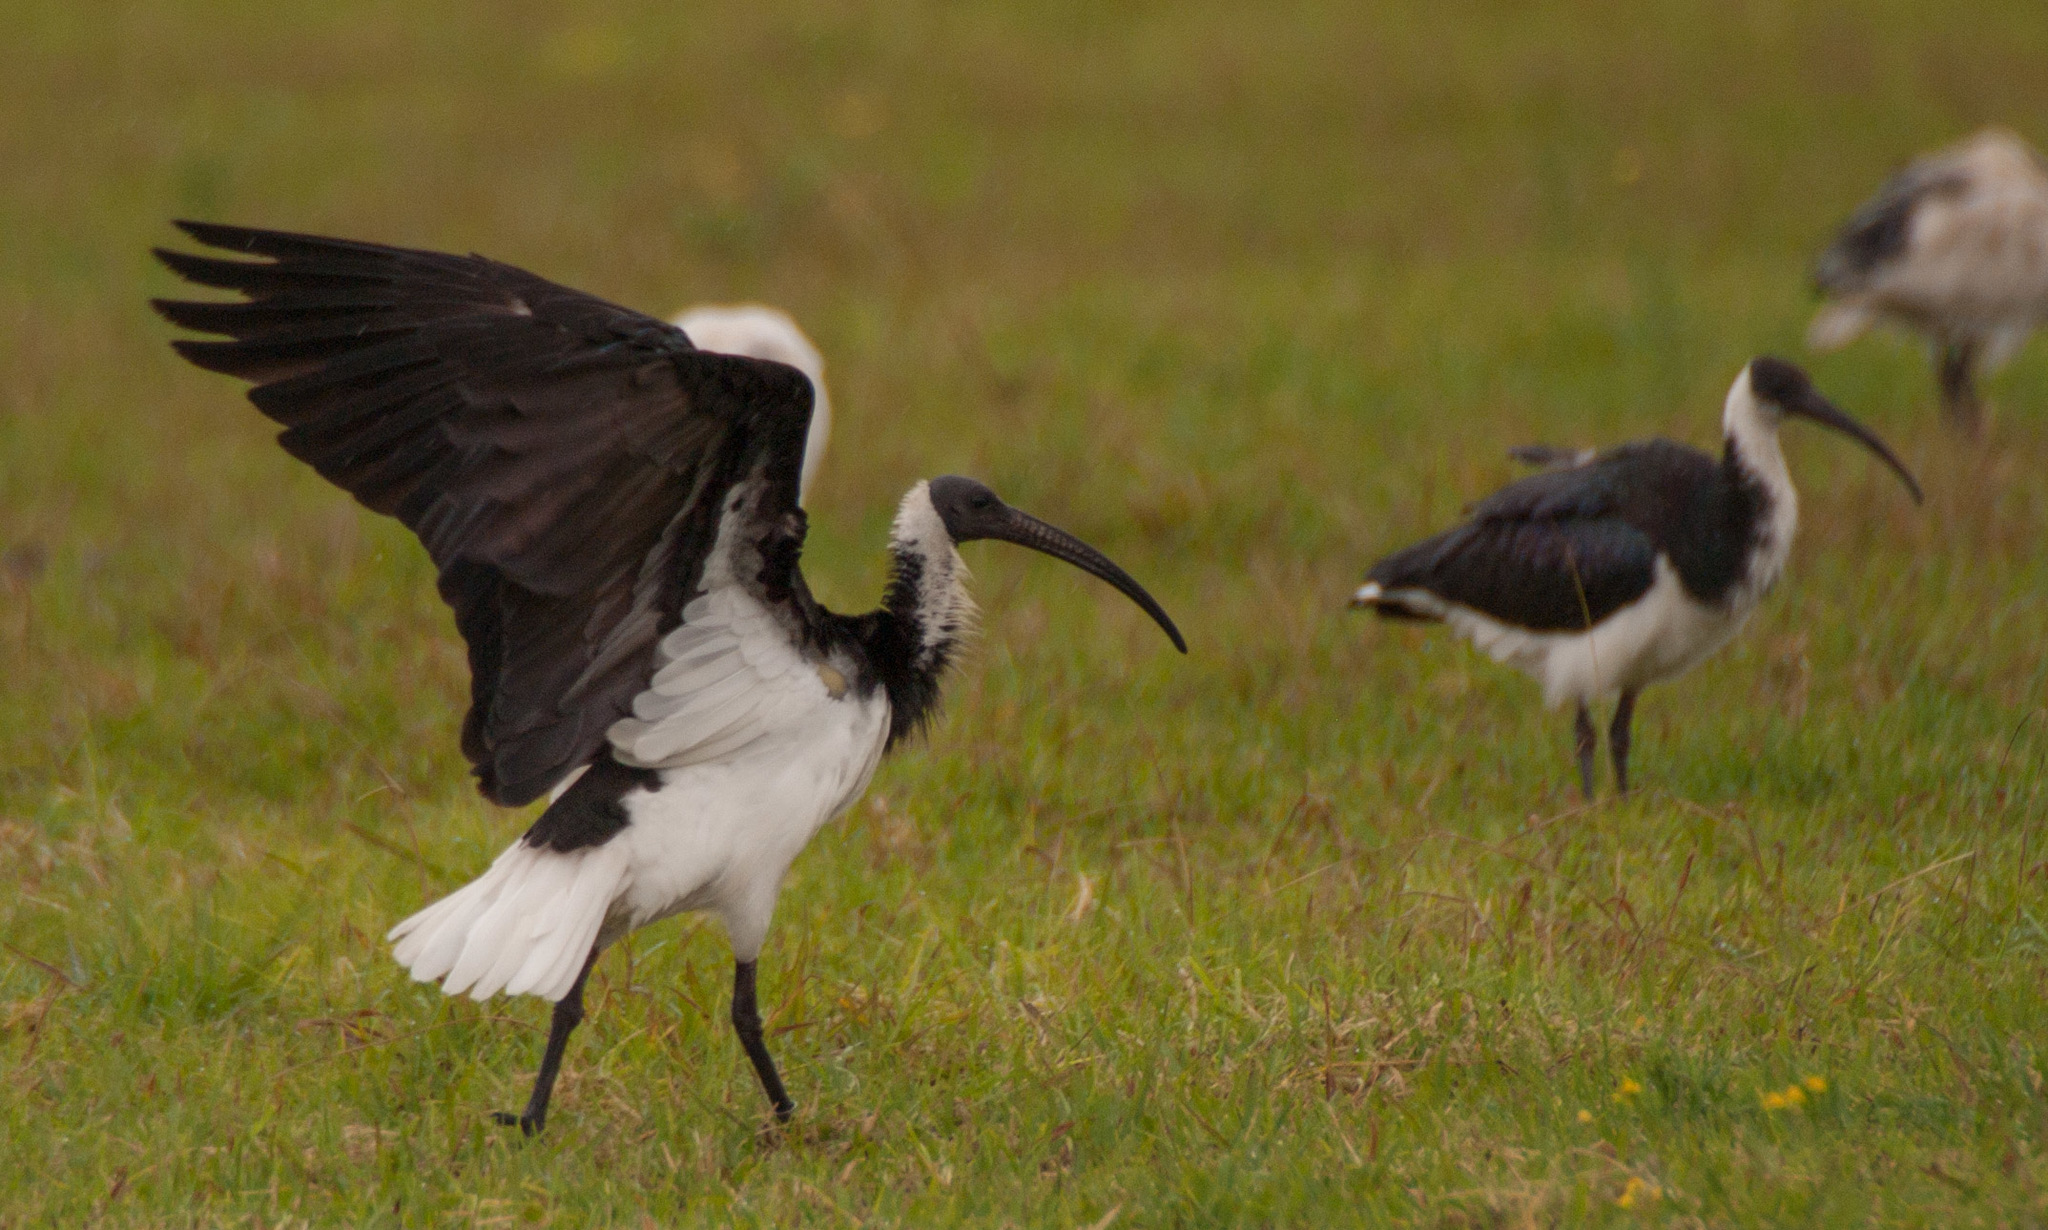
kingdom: Animalia
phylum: Chordata
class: Aves
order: Pelecaniformes
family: Threskiornithidae
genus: Threskiornis
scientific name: Threskiornis spinicollis
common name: Straw-necked ibis
